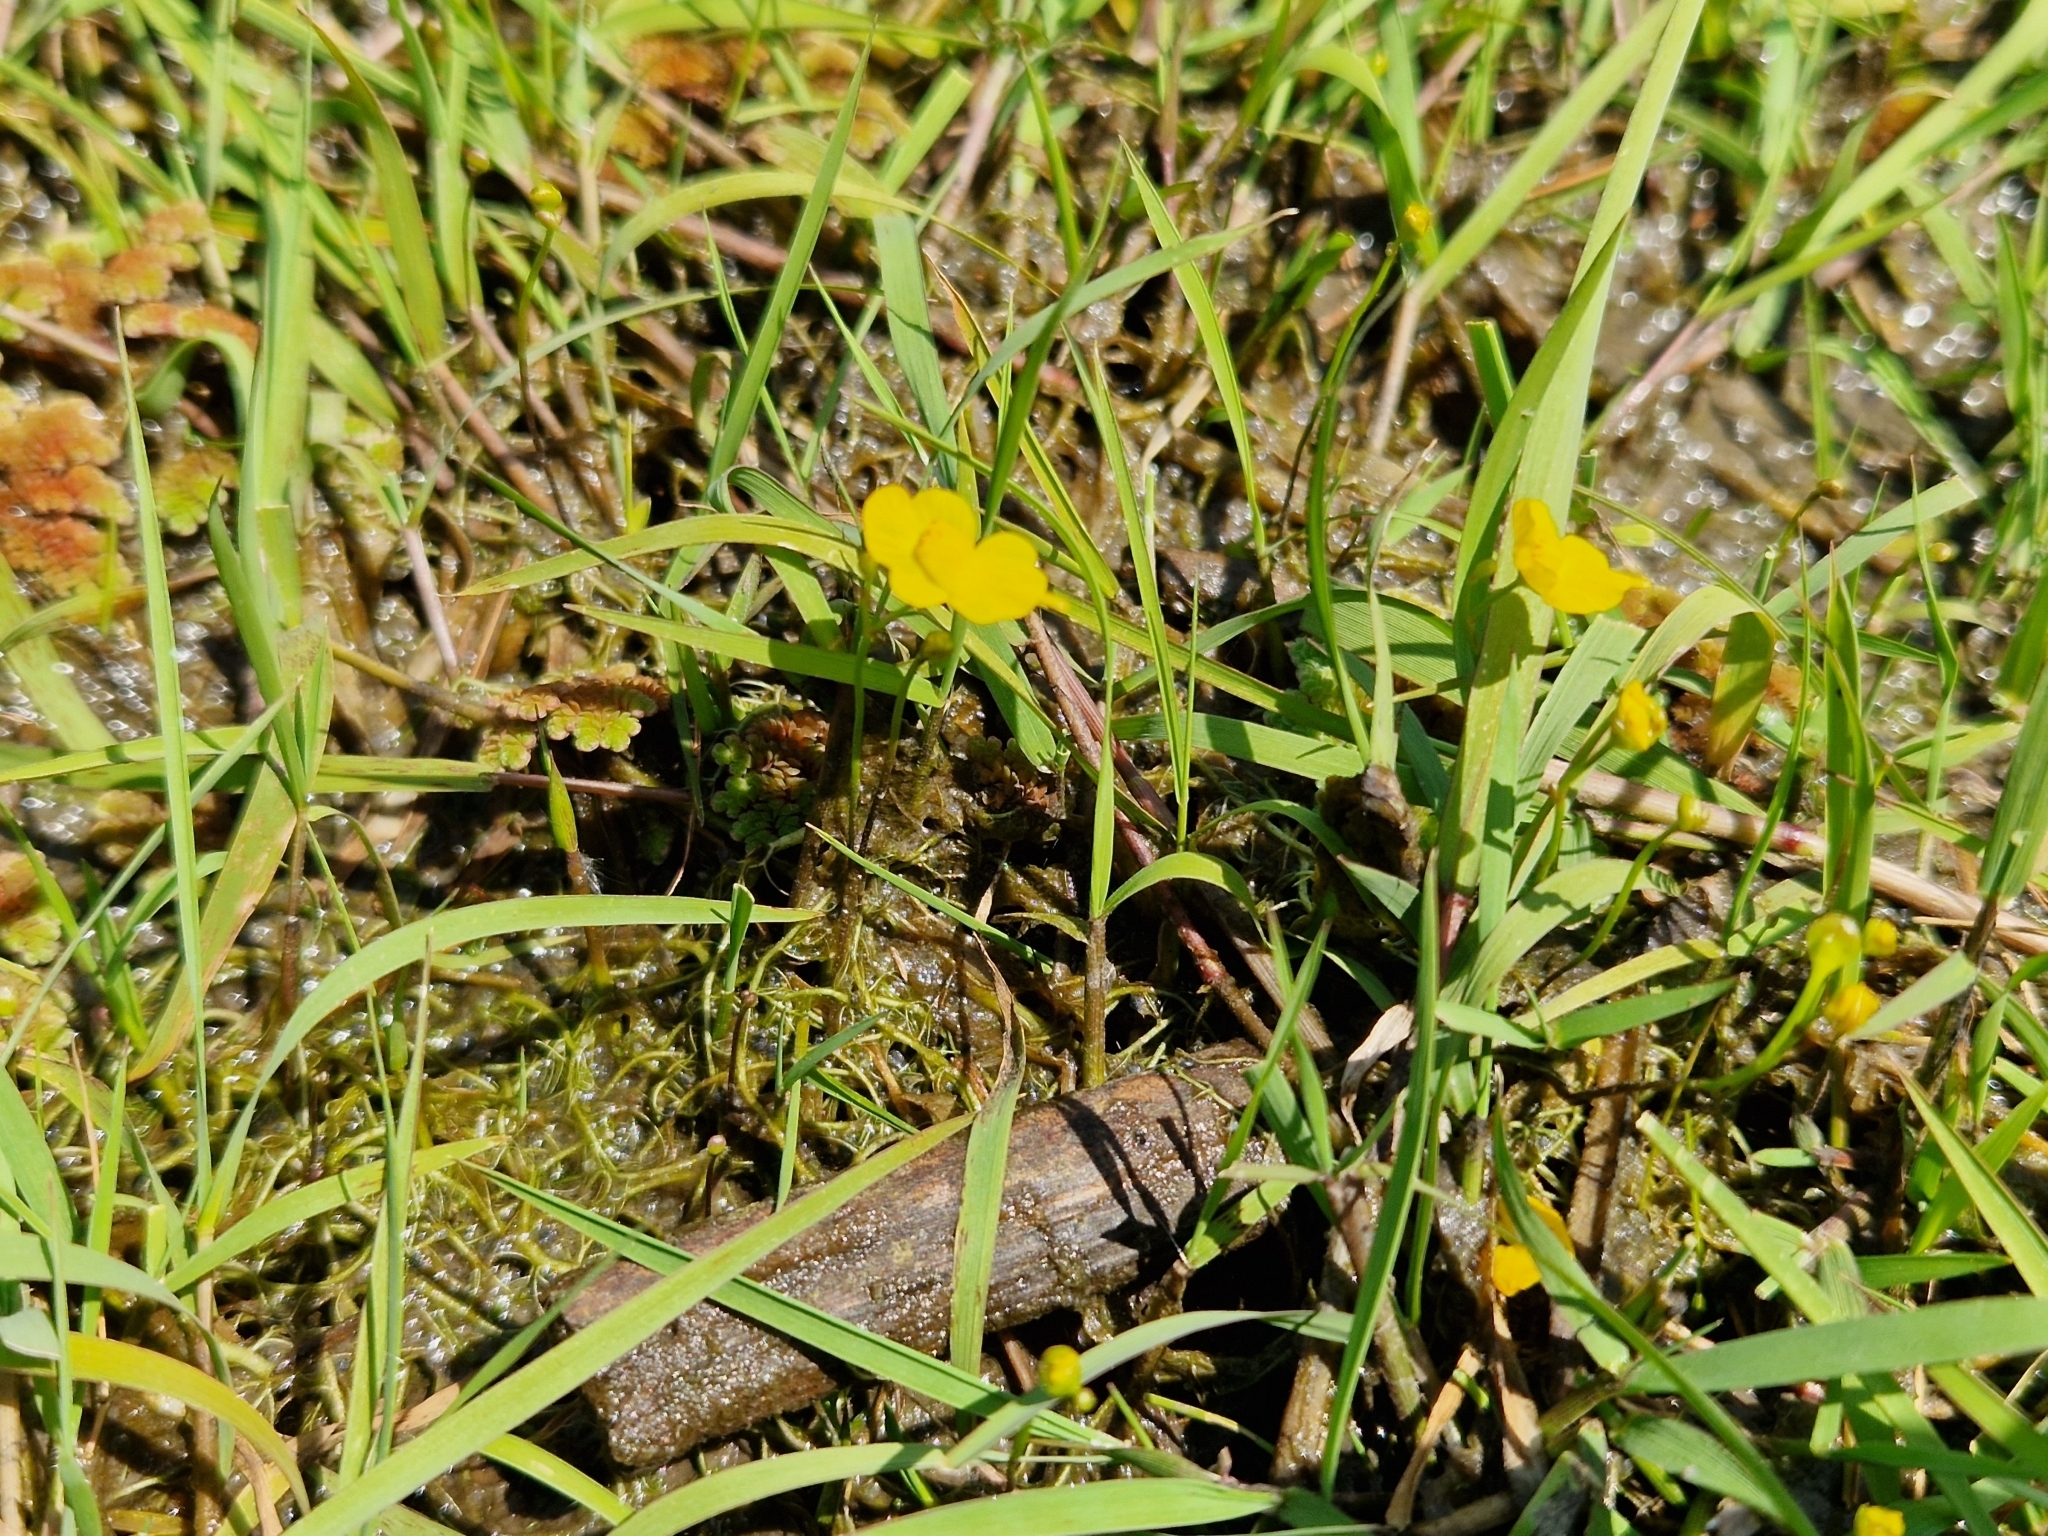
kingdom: Plantae
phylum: Tracheophyta
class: Magnoliopsida
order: Lamiales
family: Lentibulariaceae
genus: Utricularia
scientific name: Utricularia gibba
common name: Humped bladderwort
